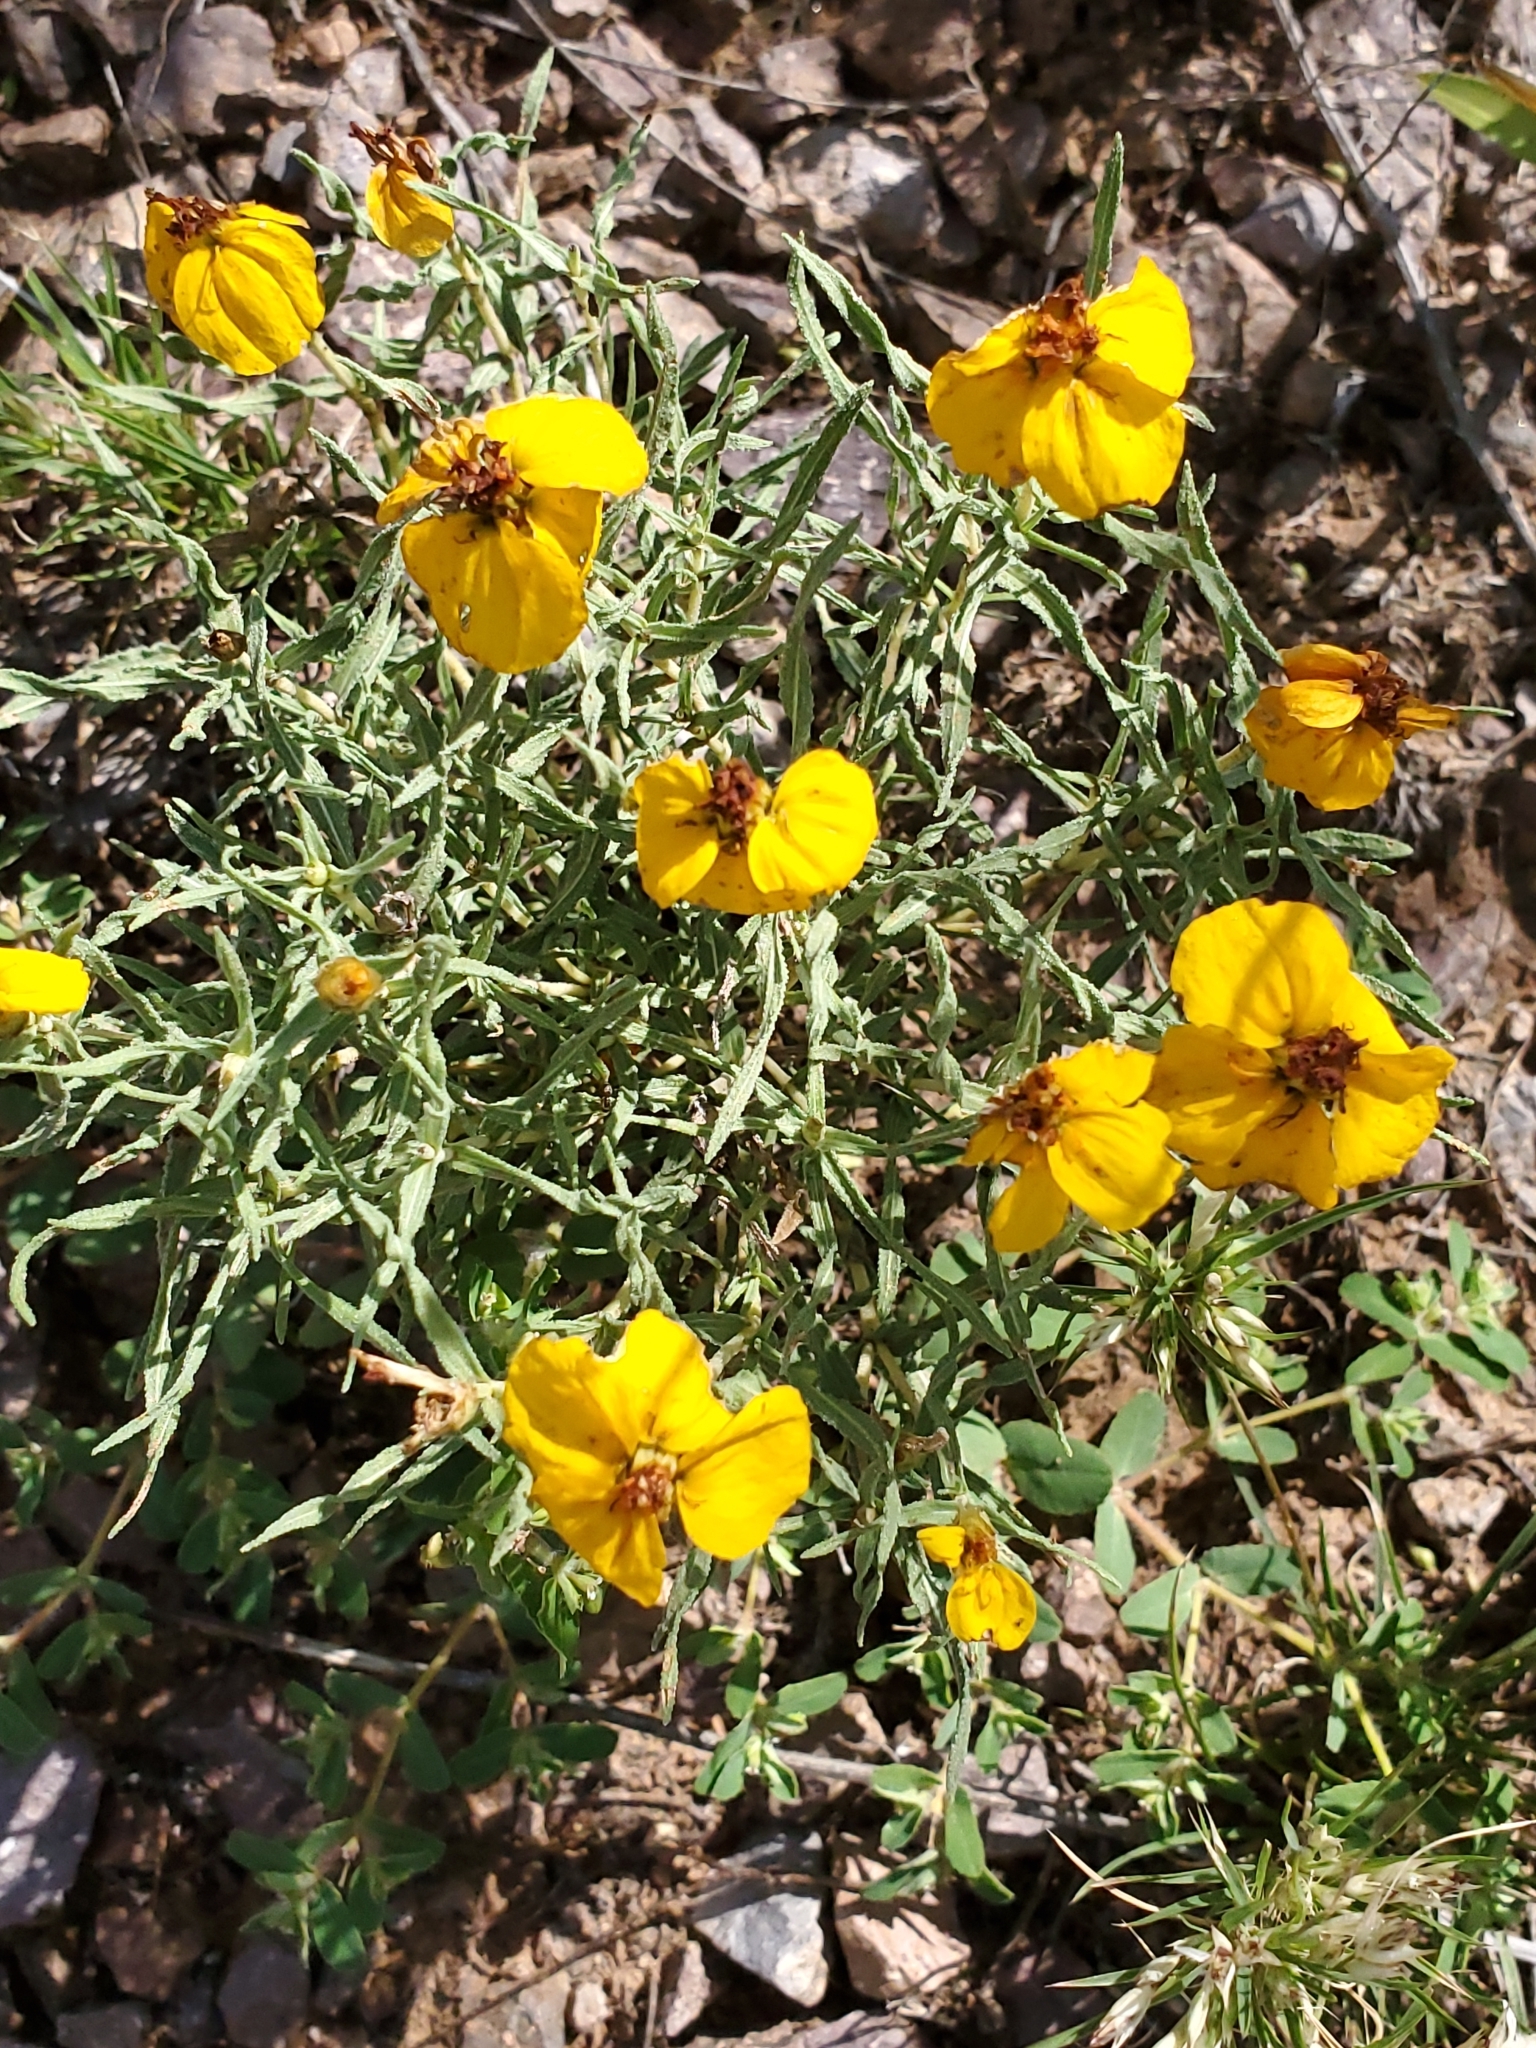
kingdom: Plantae
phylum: Tracheophyta
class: Magnoliopsida
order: Asterales
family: Asteraceae
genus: Zinnia
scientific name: Zinnia grandiflora
